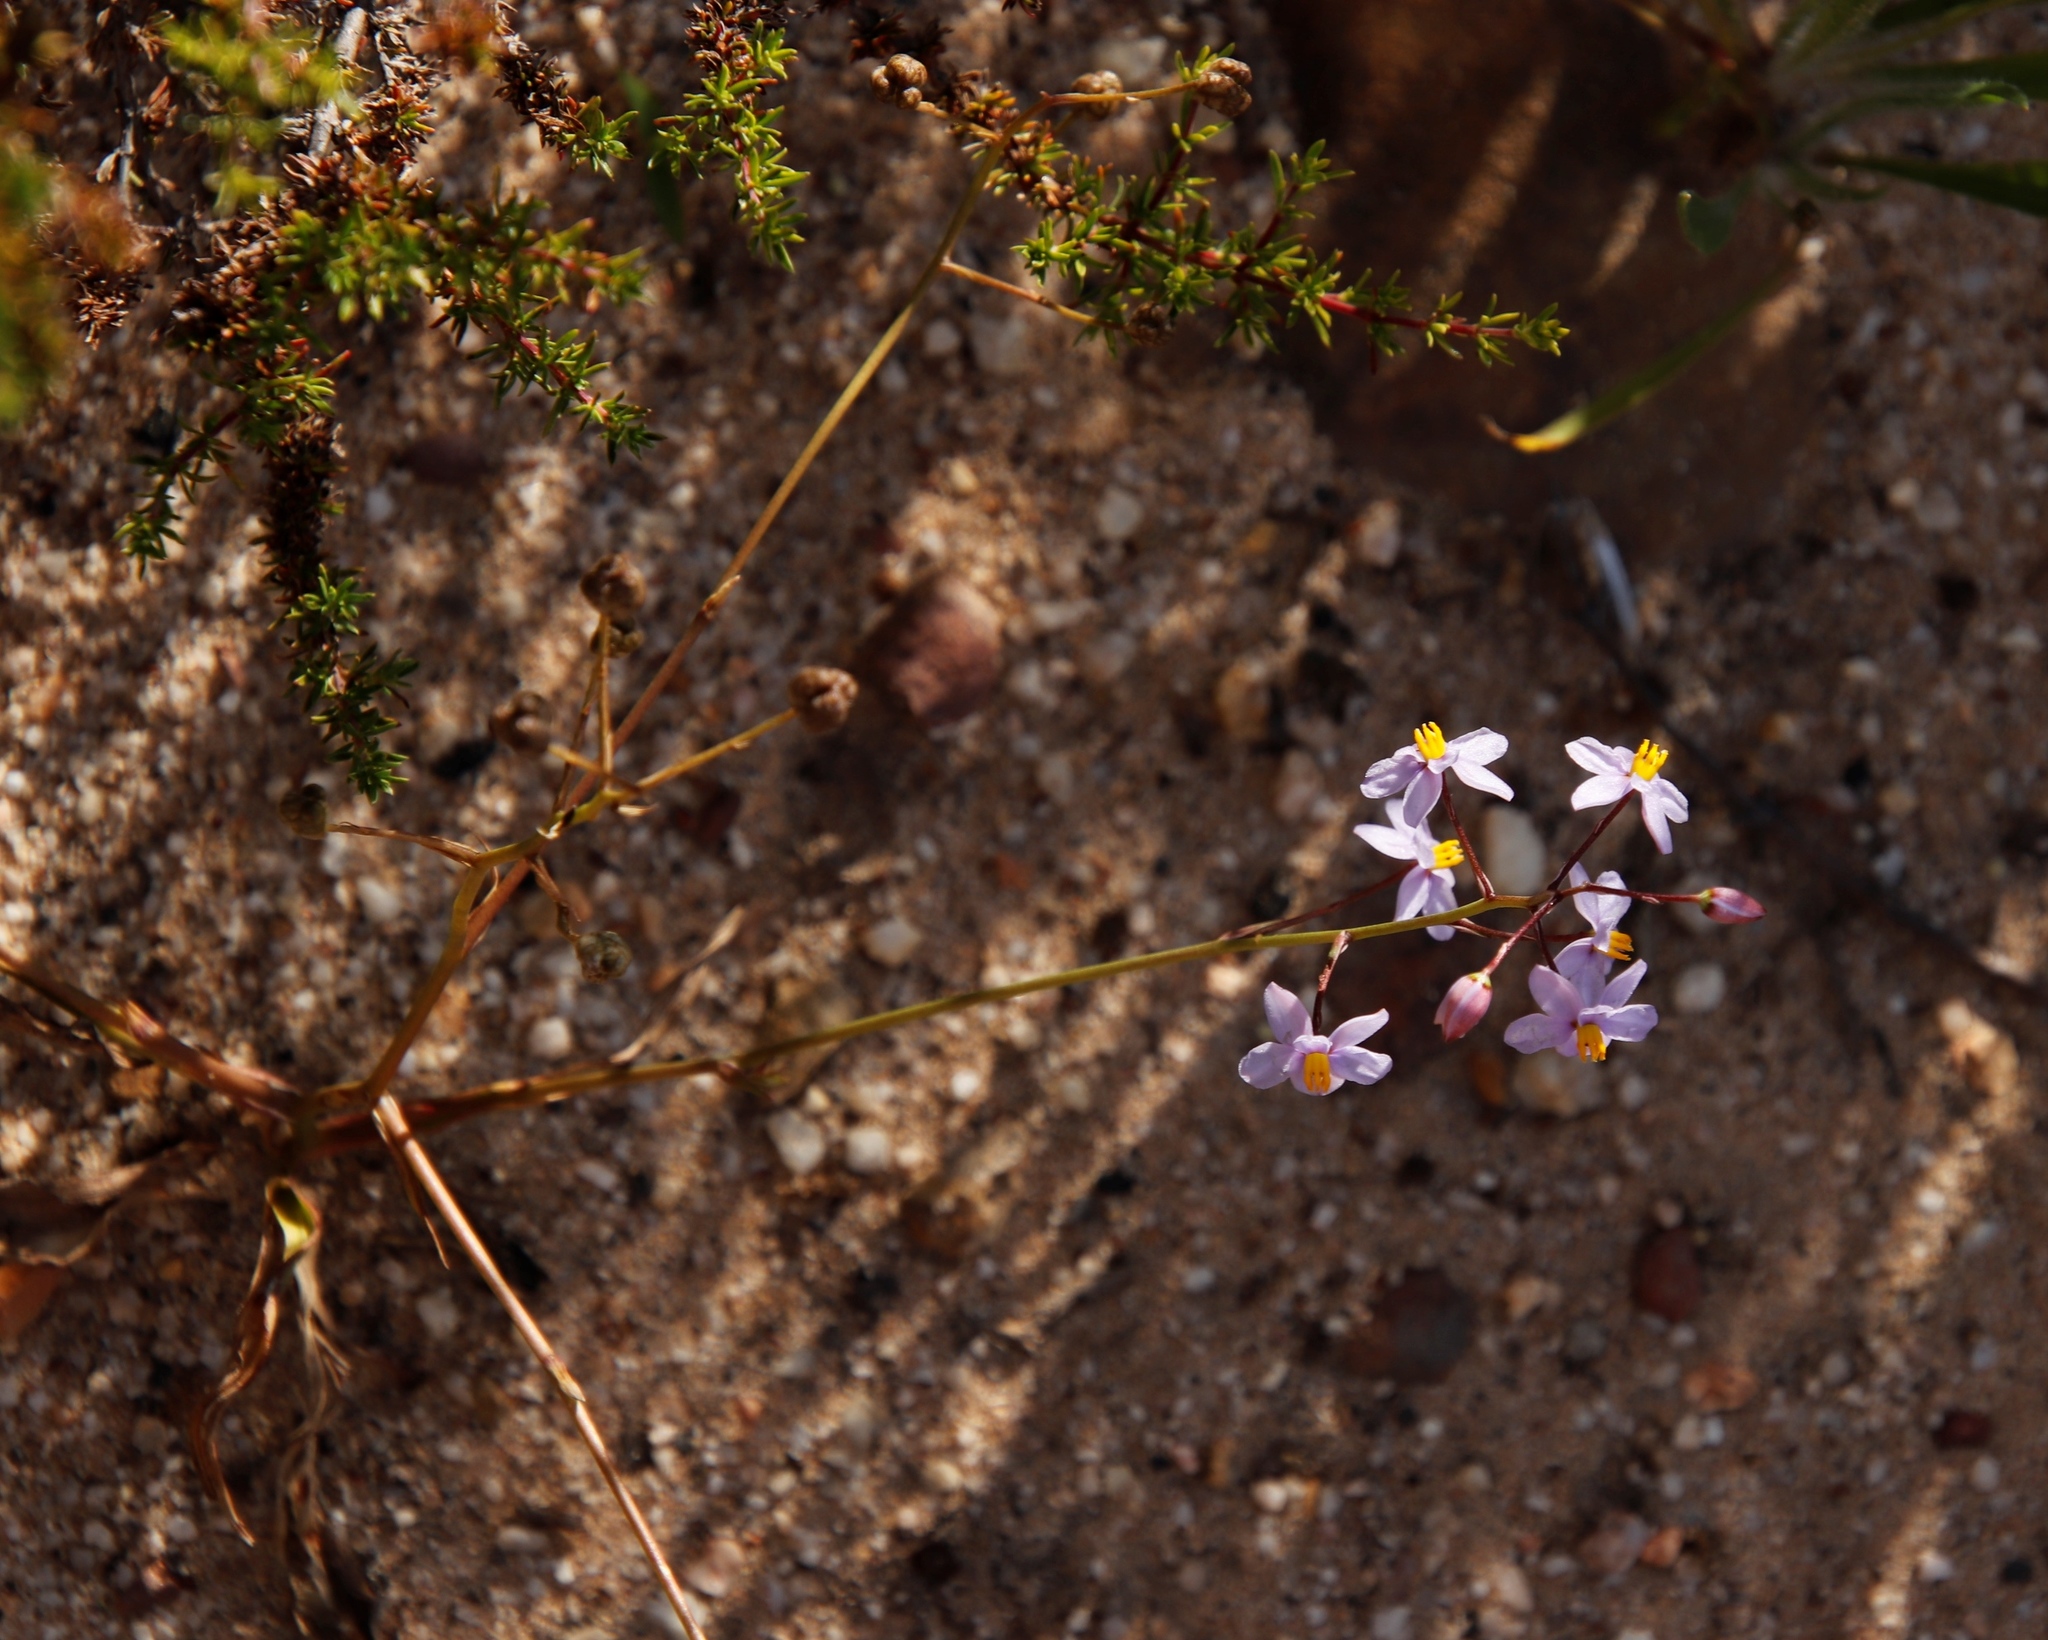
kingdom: Plantae
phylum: Tracheophyta
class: Liliopsida
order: Asparagales
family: Tecophilaeaceae
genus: Cyanella
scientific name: Cyanella hyacinthoides
